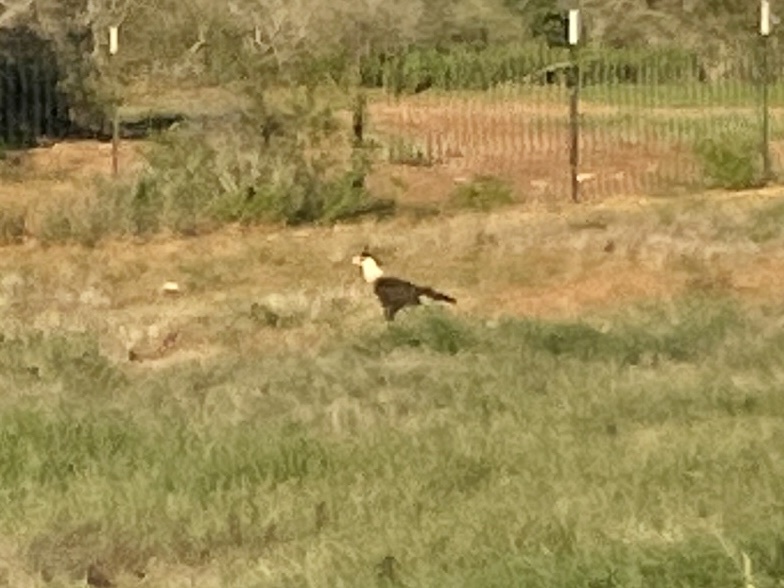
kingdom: Animalia
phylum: Chordata
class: Aves
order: Falconiformes
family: Falconidae
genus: Caracara
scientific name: Caracara plancus
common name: Southern caracara
